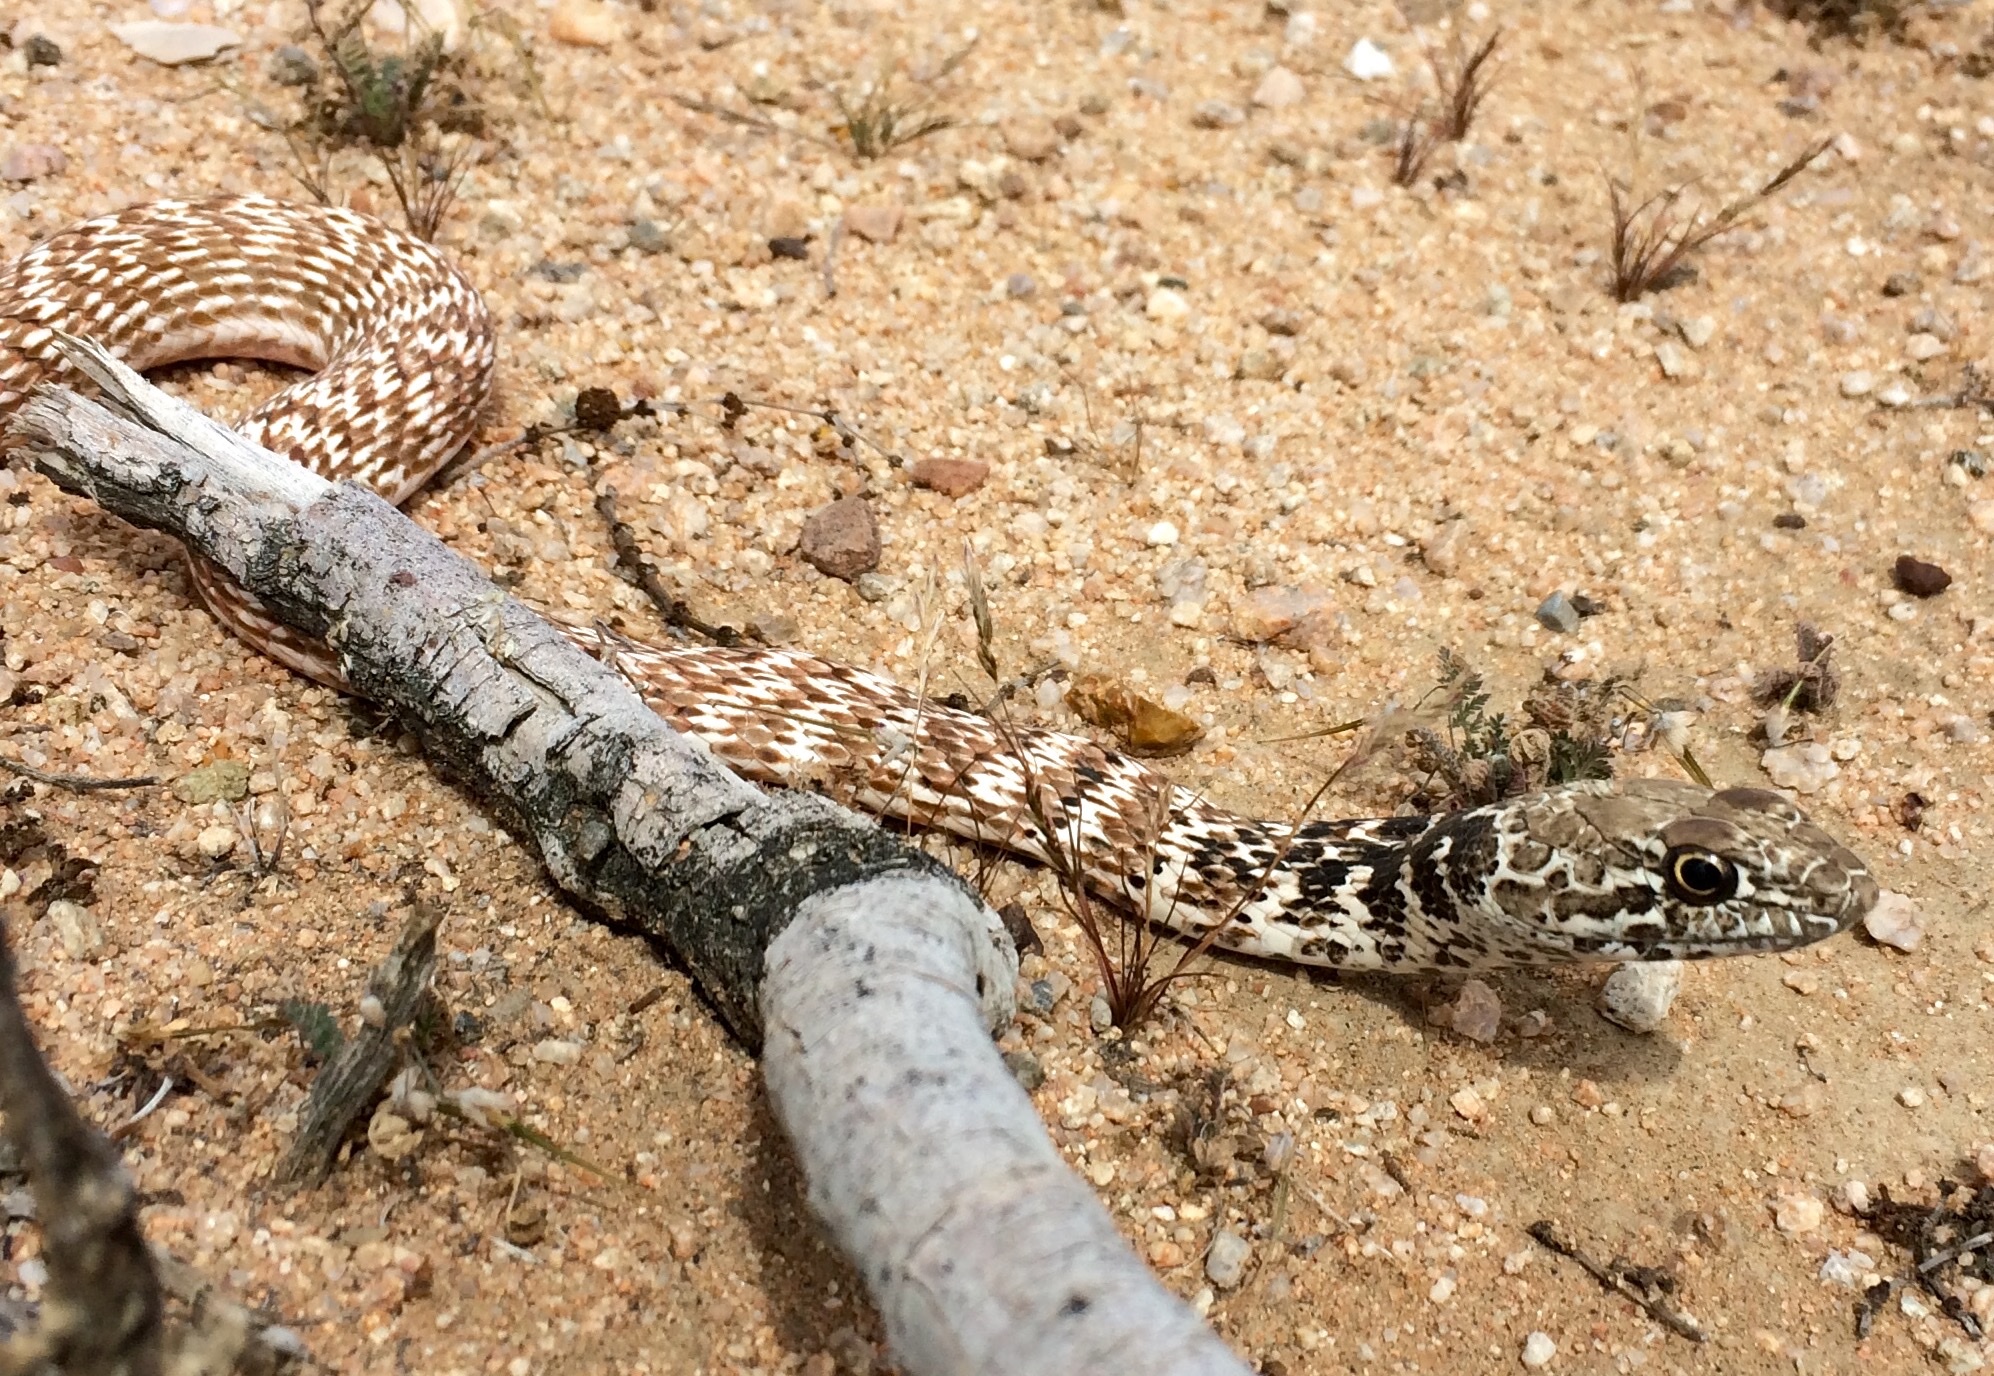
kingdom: Animalia
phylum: Chordata
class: Squamata
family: Colubridae
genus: Masticophis
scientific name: Masticophis flagellum
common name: Coachwhip
